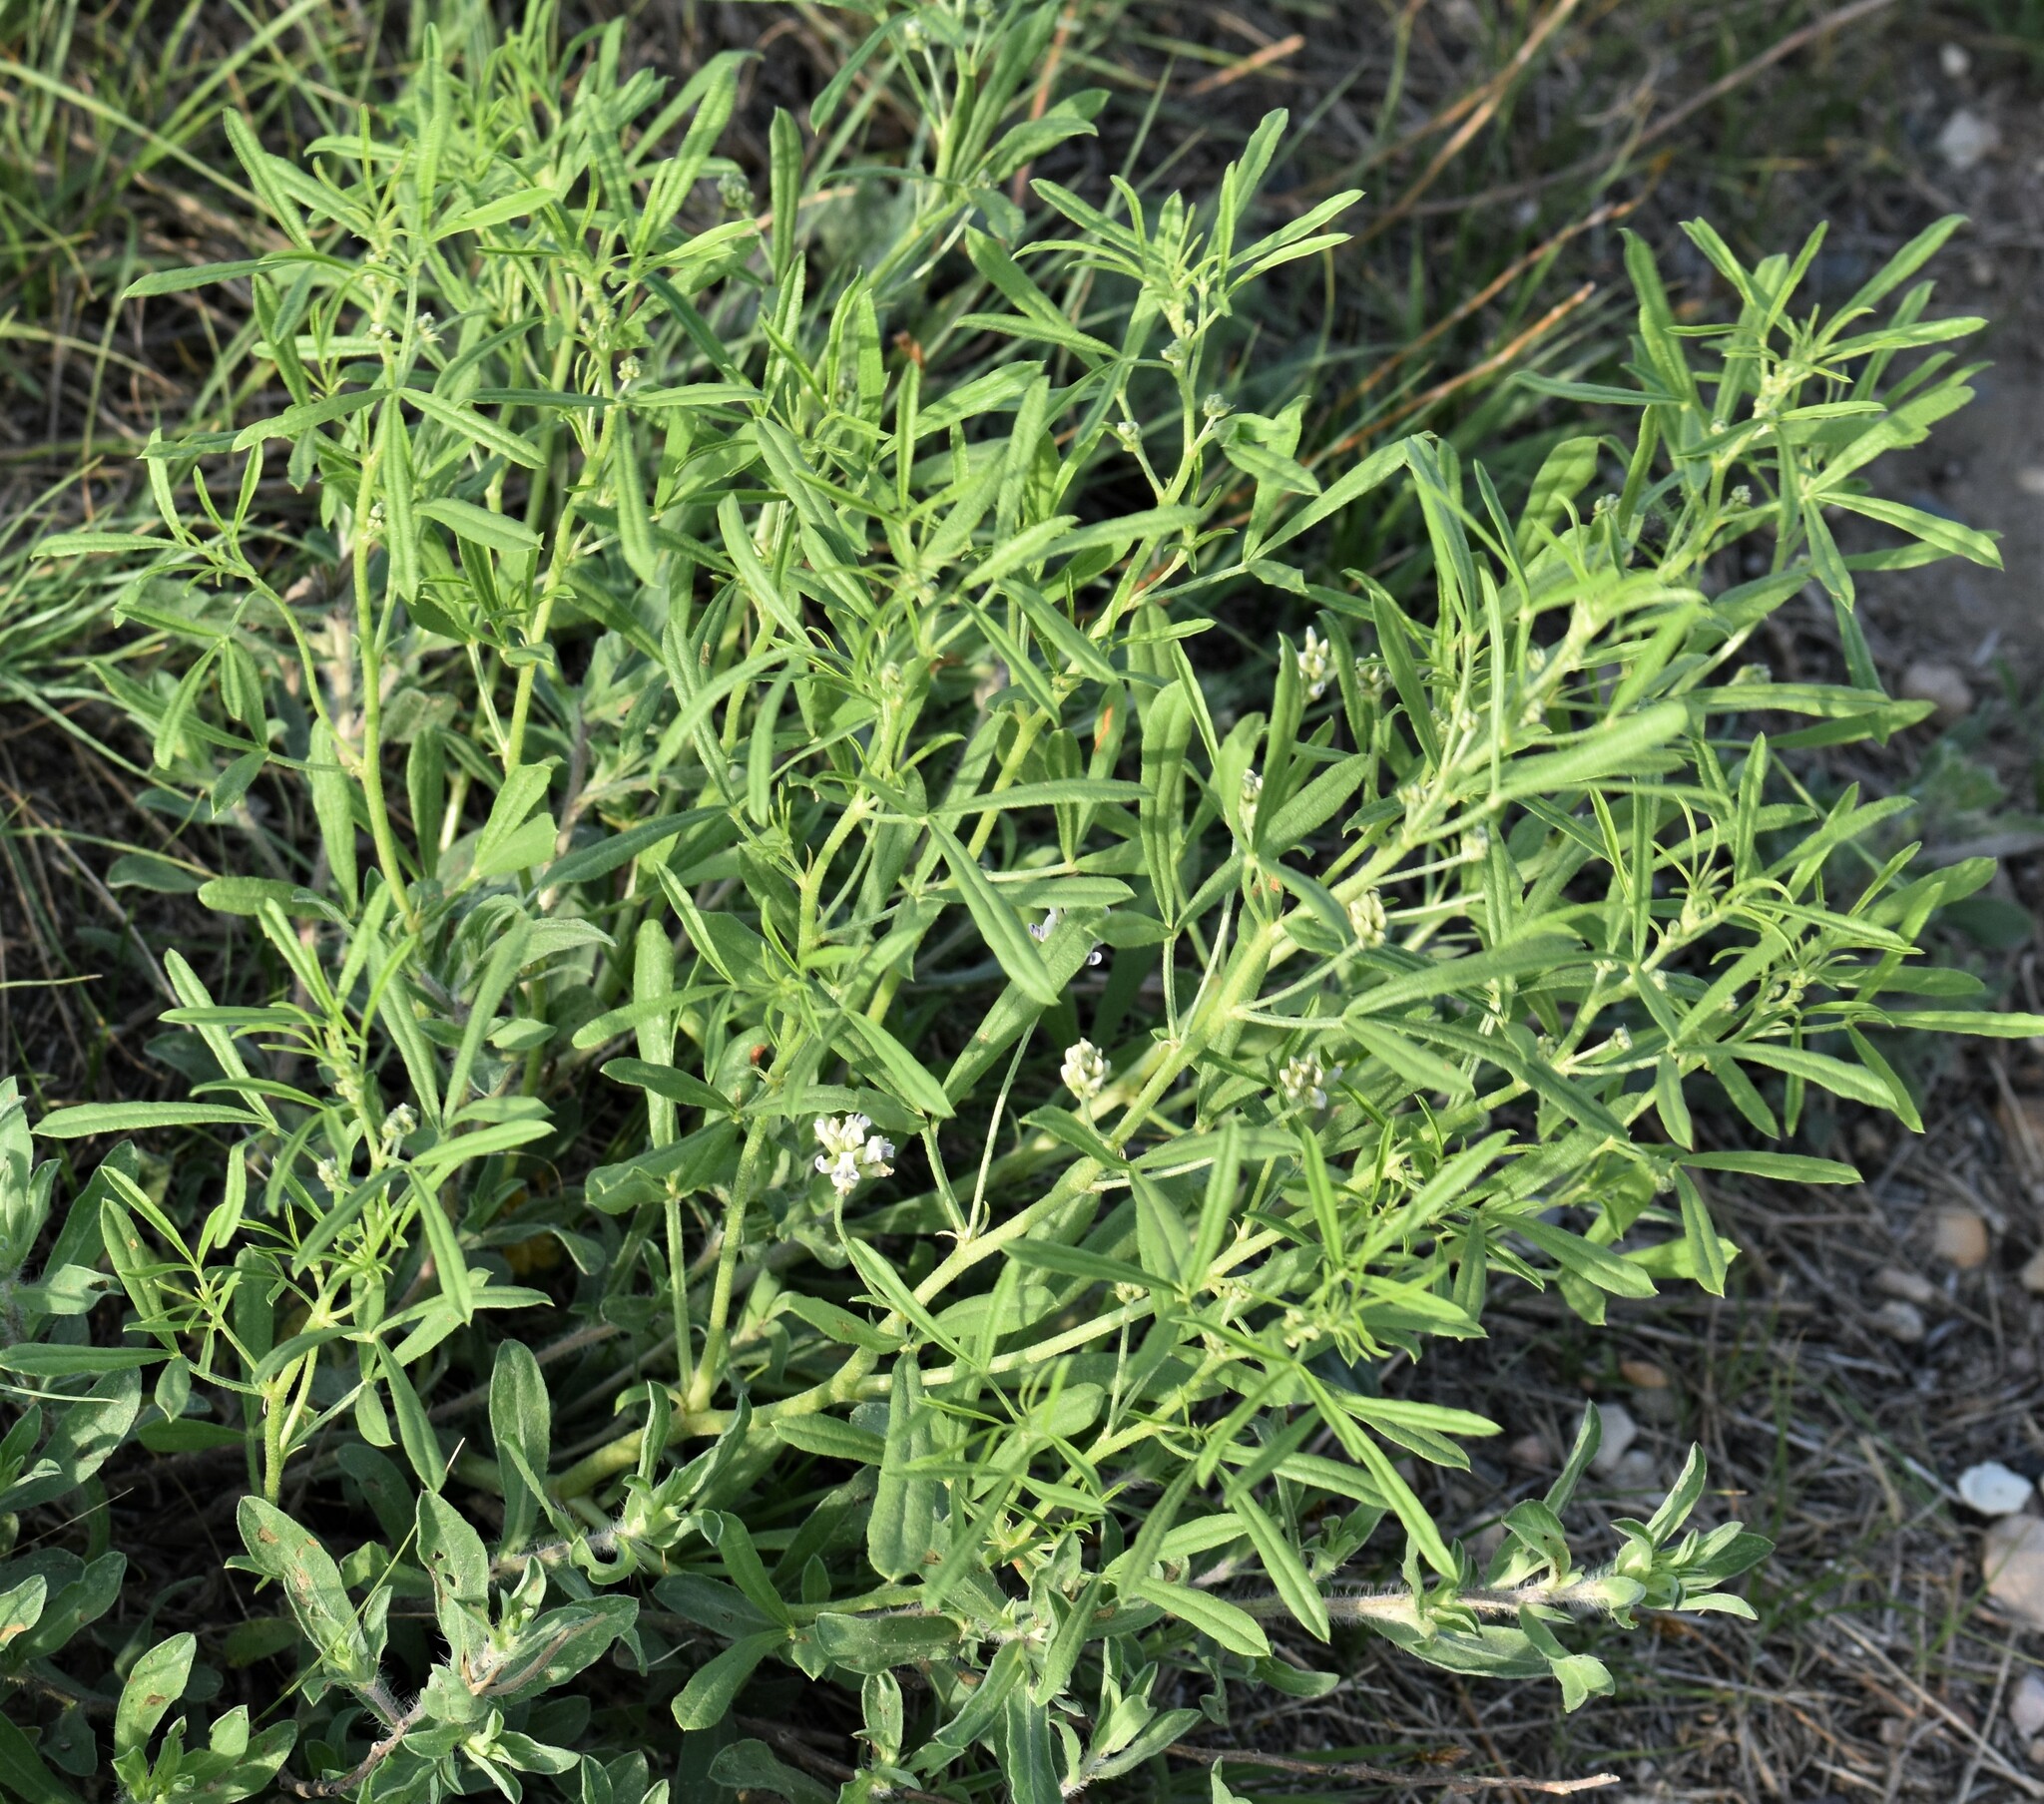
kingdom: Plantae
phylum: Tracheophyta
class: Magnoliopsida
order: Fabales
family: Fabaceae
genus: Ladeania
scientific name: Ladeania lanceolata
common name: Dune scurf-pea
